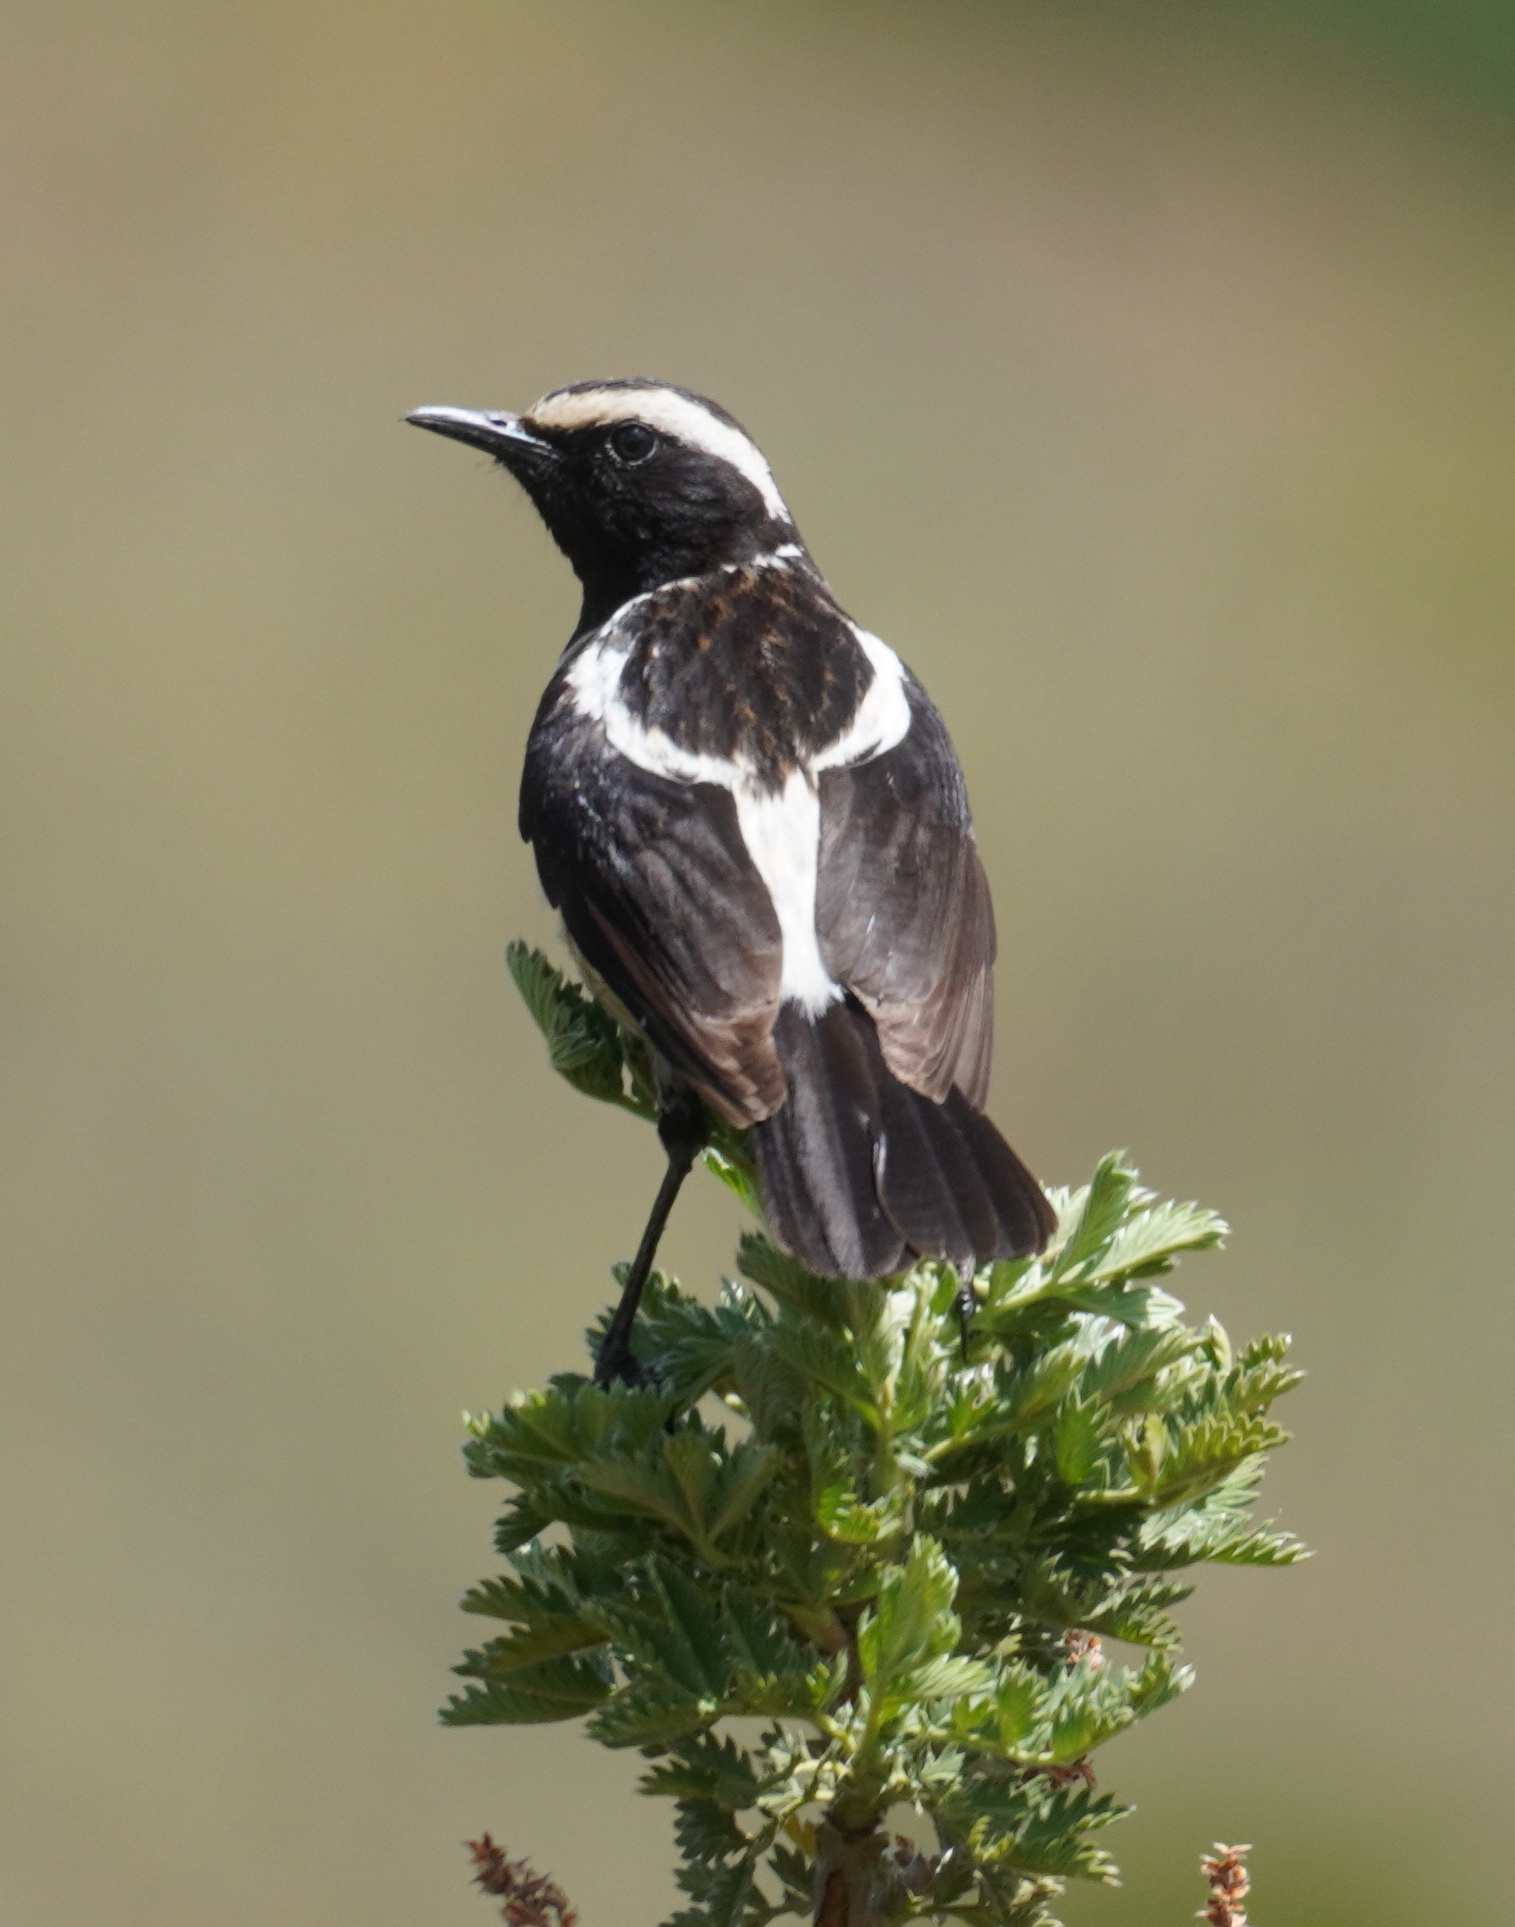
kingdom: Animalia
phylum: Chordata
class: Aves
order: Passeriformes
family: Muscicapidae
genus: Campicoloides
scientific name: Campicoloides bifasciatus
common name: Buff-streaked chat
